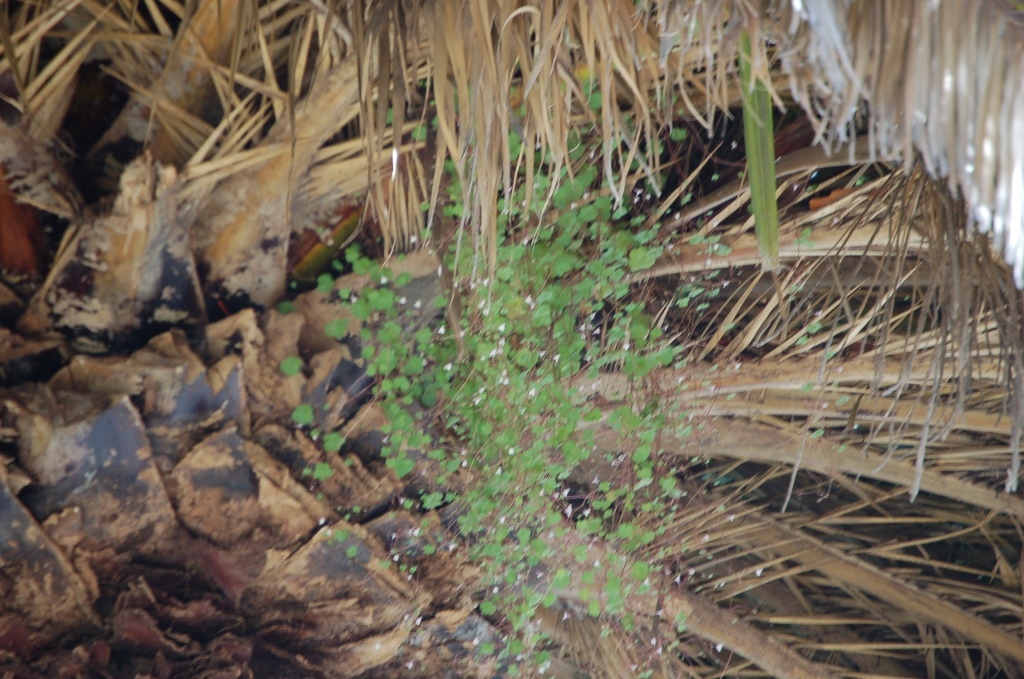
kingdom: Plantae
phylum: Tracheophyta
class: Magnoliopsida
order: Lamiales
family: Plantaginaceae
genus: Cymbalaria
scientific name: Cymbalaria muralis
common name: Ivy-leaved toadflax
